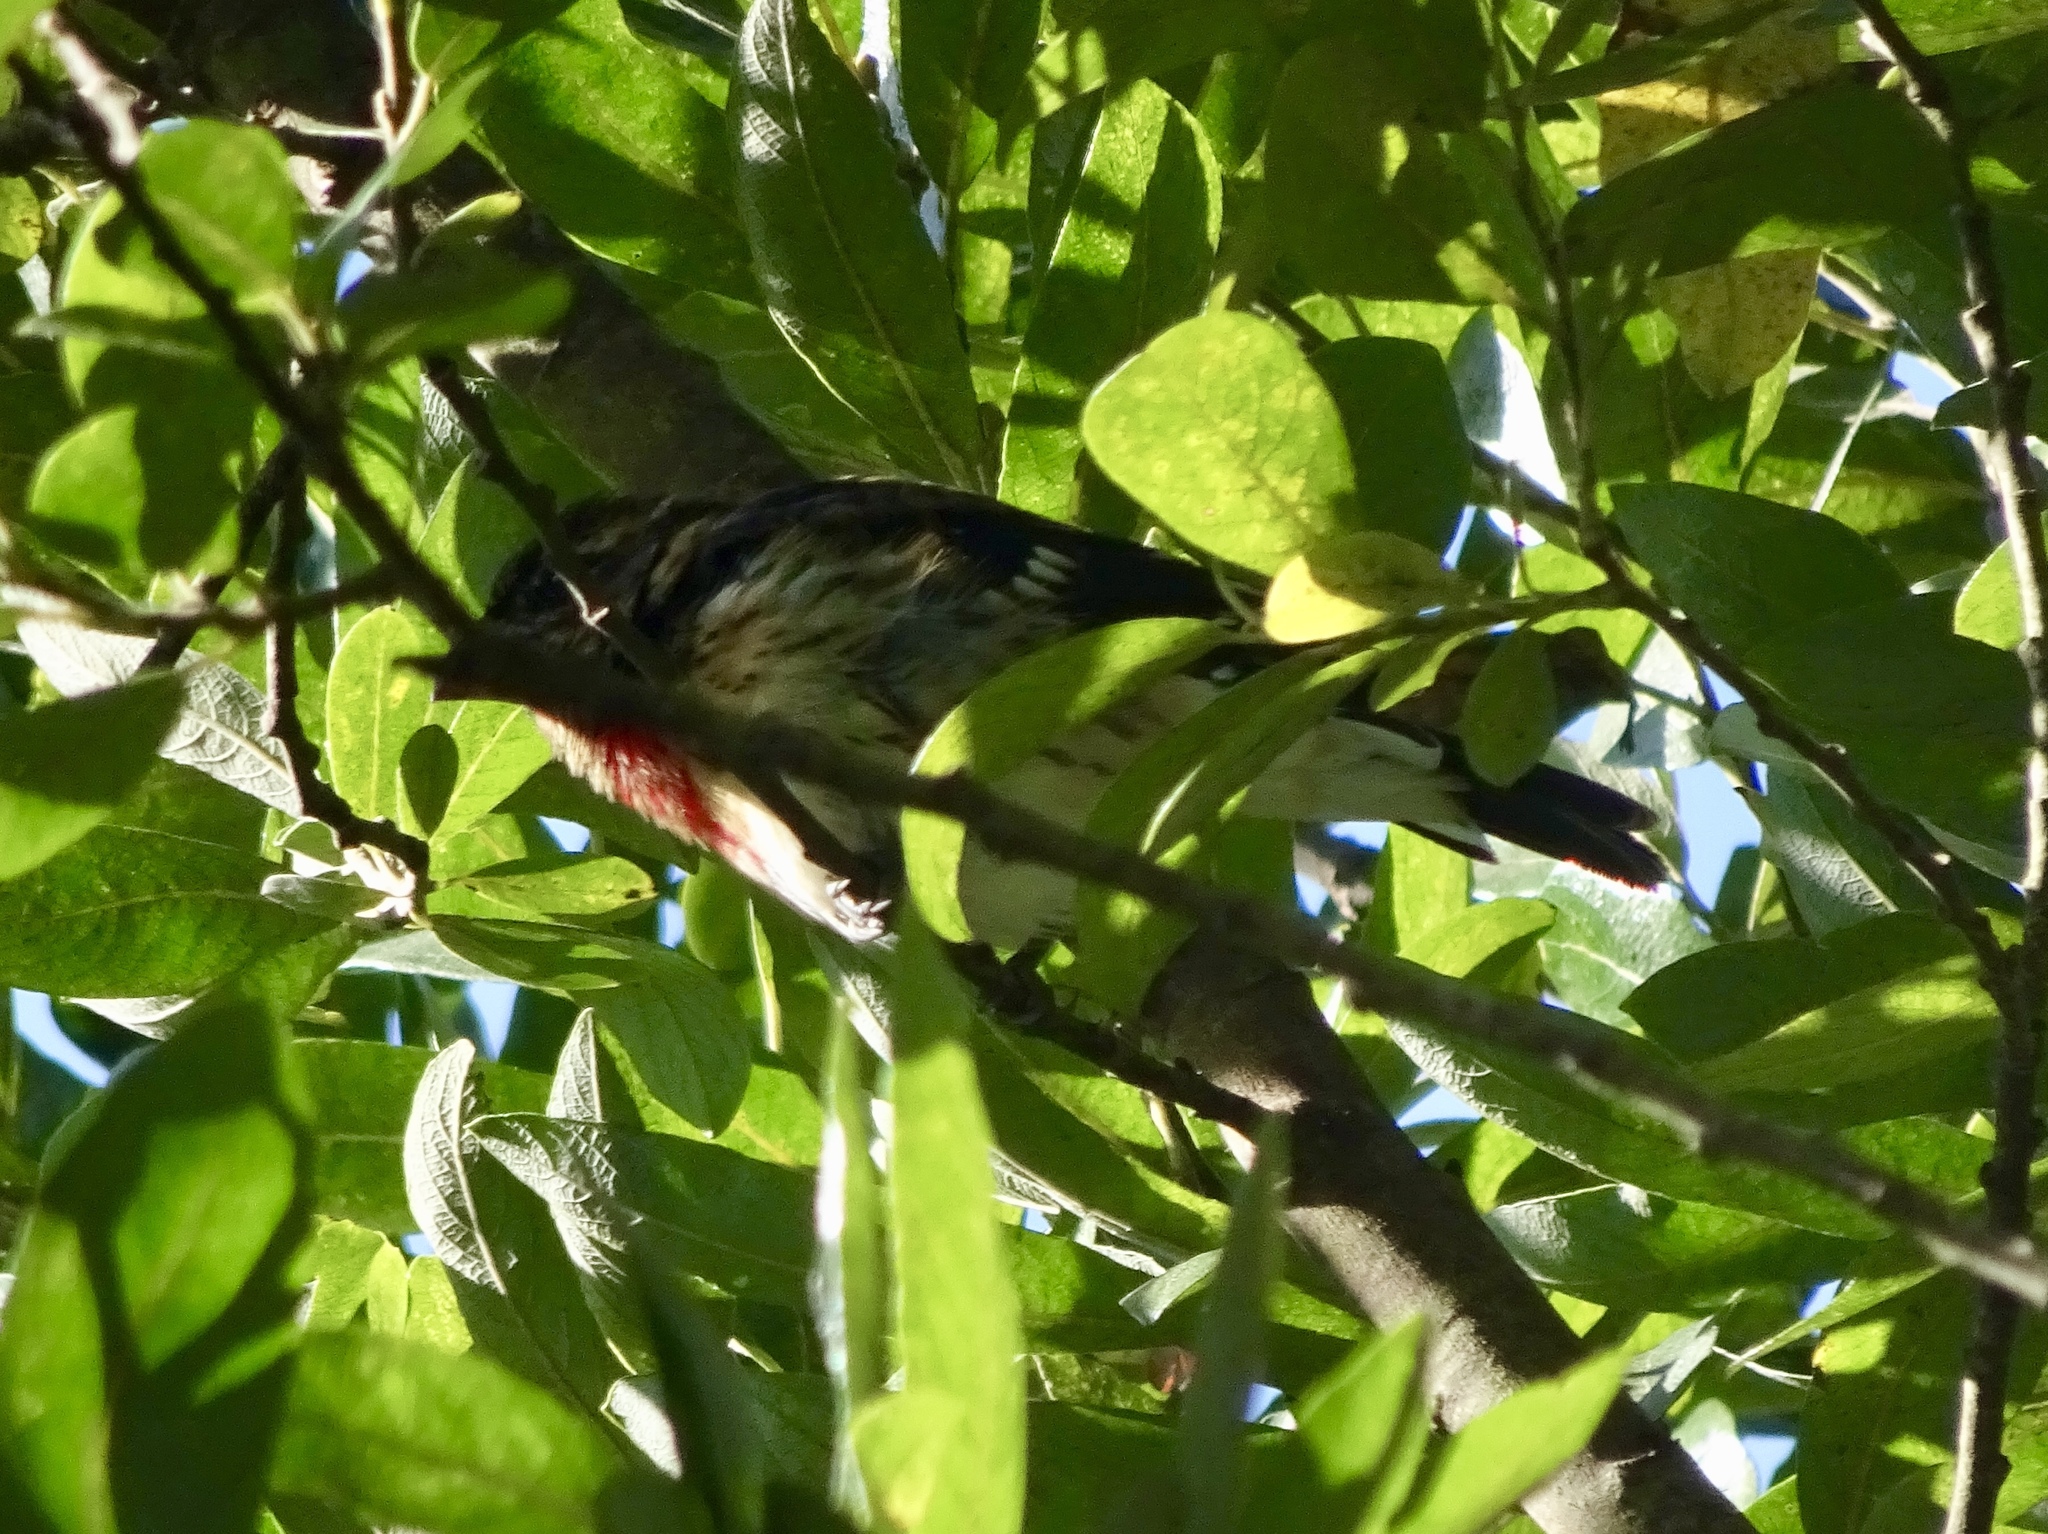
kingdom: Animalia
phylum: Chordata
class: Aves
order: Passeriformes
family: Cardinalidae
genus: Pheucticus
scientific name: Pheucticus ludovicianus
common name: Rose-breasted grosbeak
